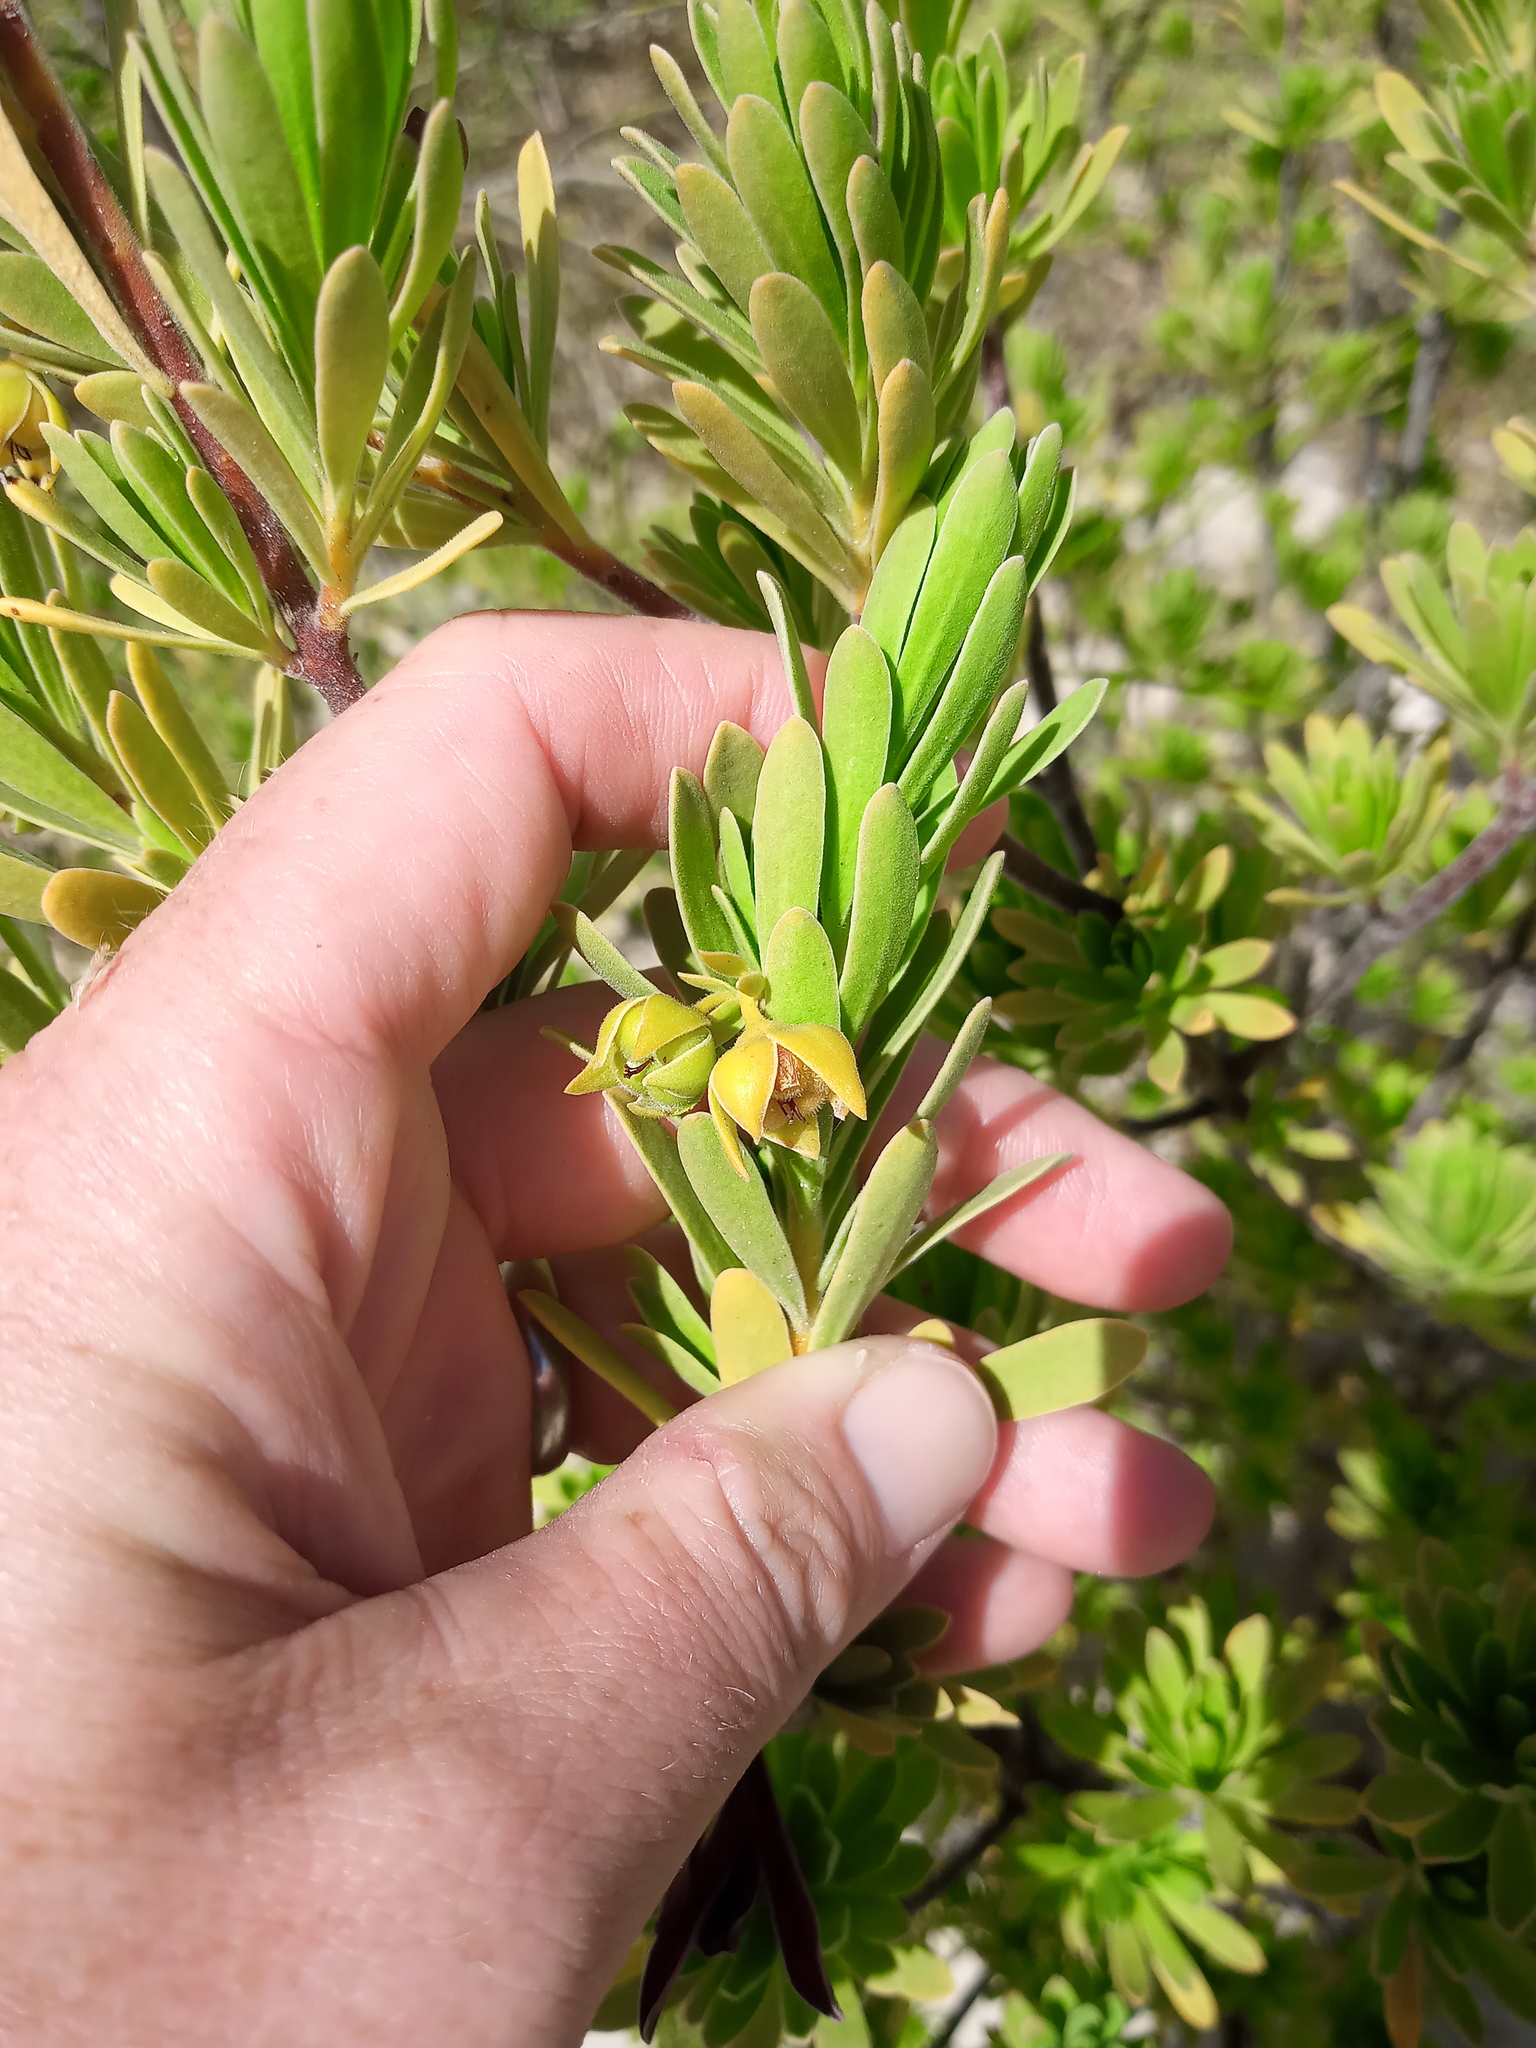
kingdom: Plantae
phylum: Tracheophyta
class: Magnoliopsida
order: Fabales
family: Surianaceae
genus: Suriana
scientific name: Suriana maritima
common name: Bay-cedar
